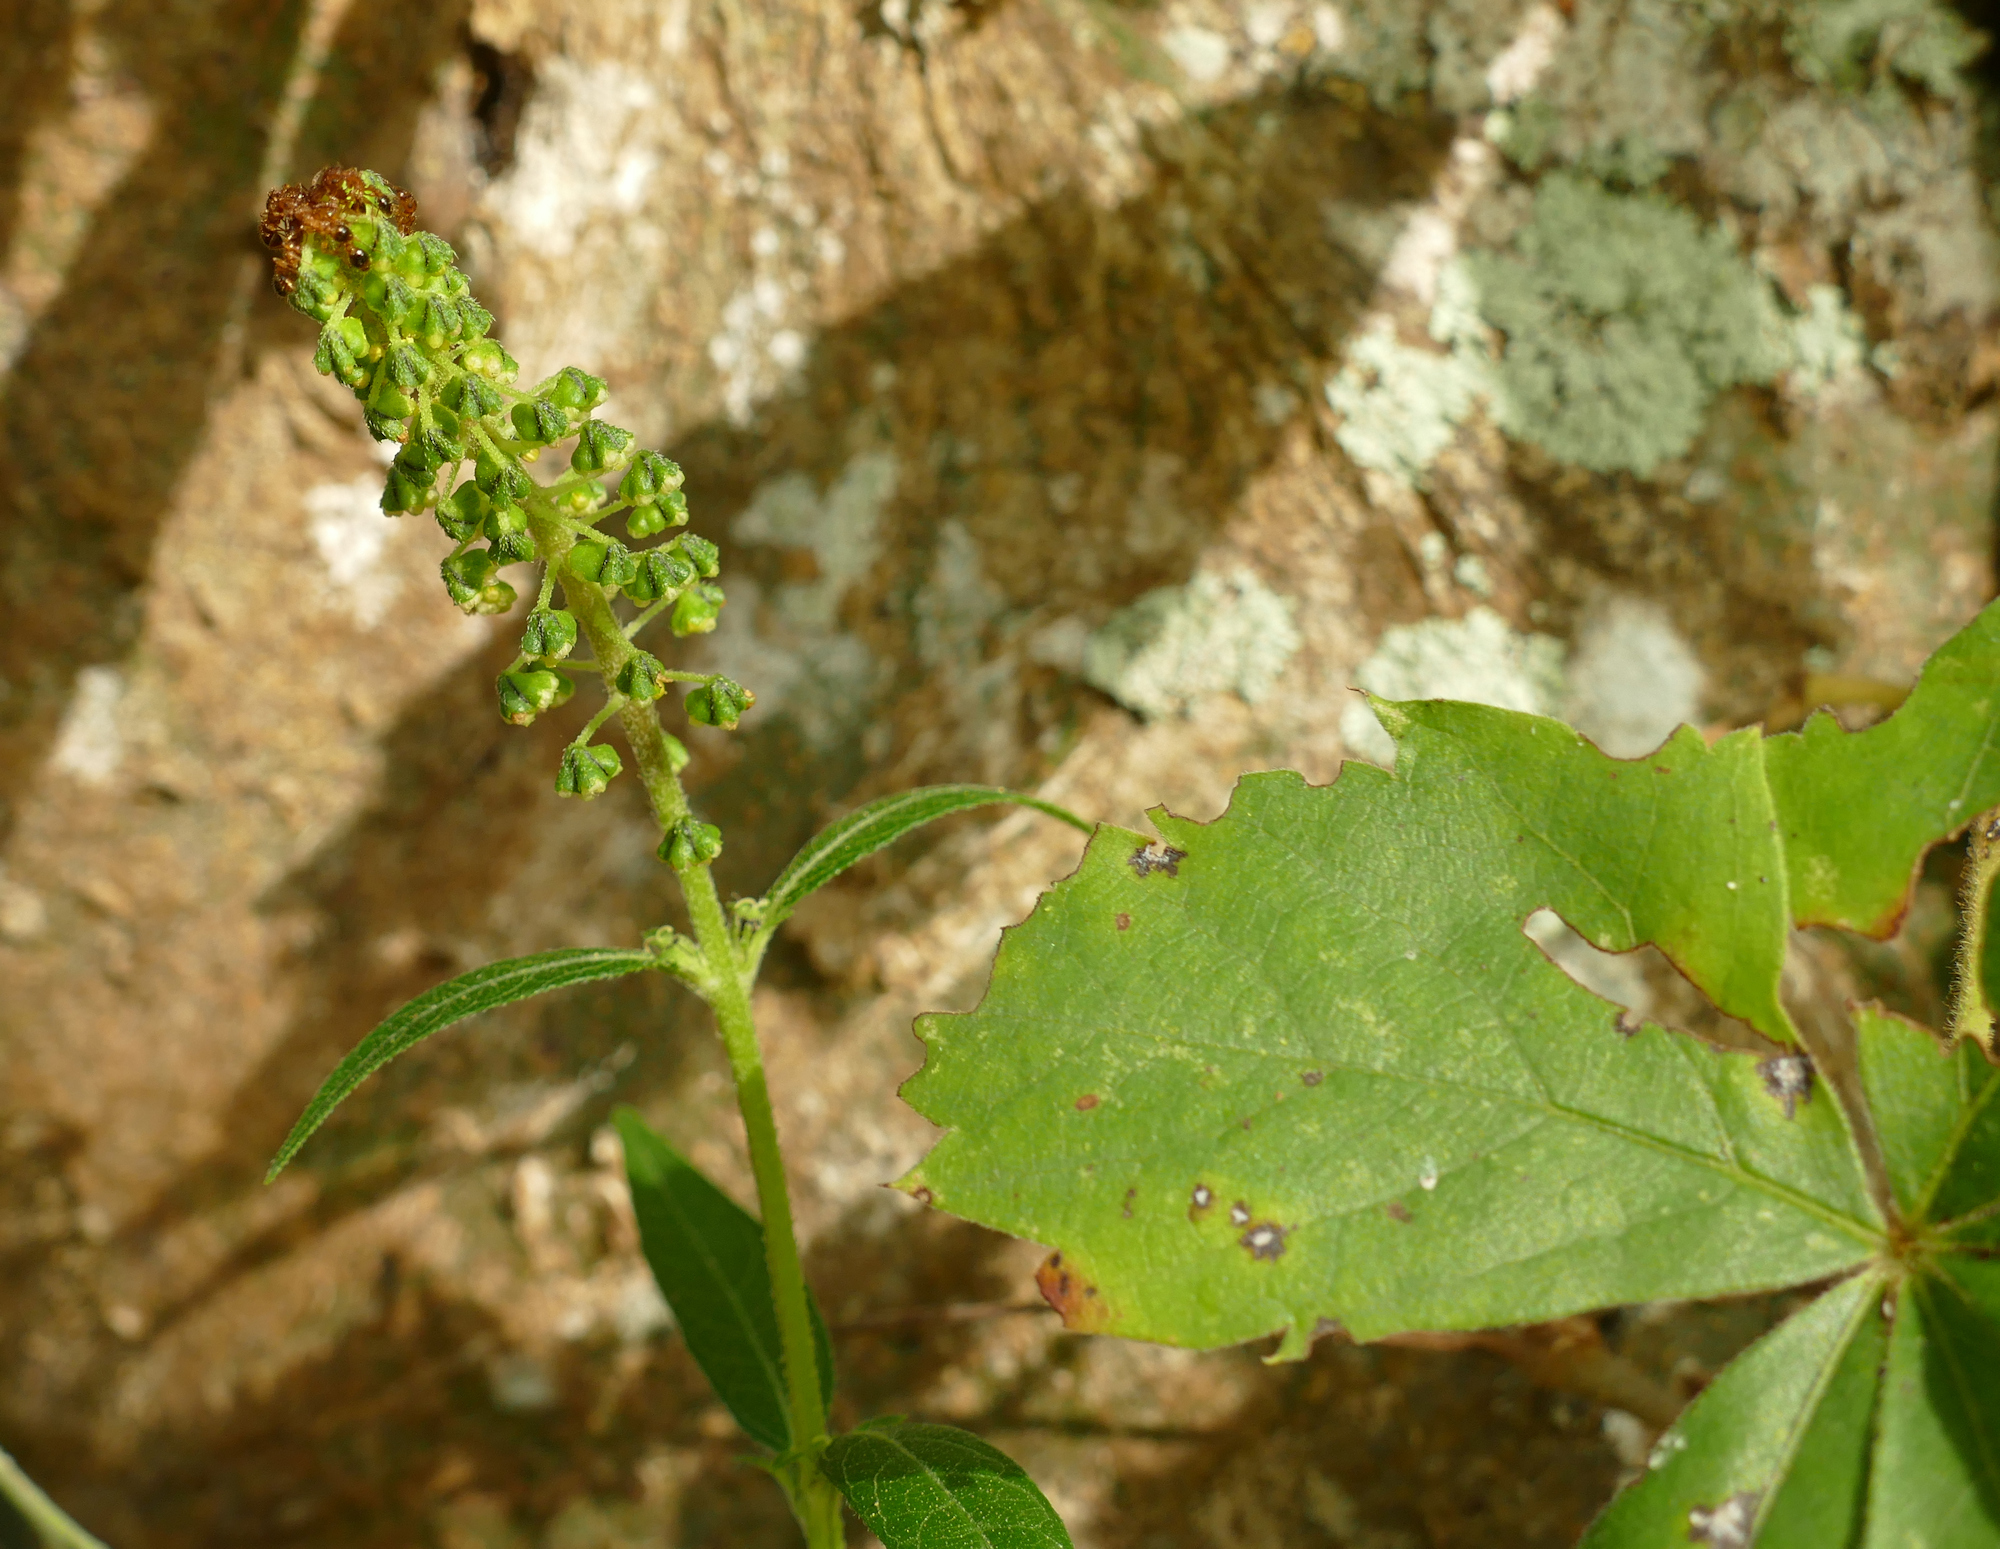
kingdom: Plantae
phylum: Tracheophyta
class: Magnoliopsida
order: Asterales
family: Asteraceae
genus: Ambrosia
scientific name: Ambrosia trifida
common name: Giant ragweed
